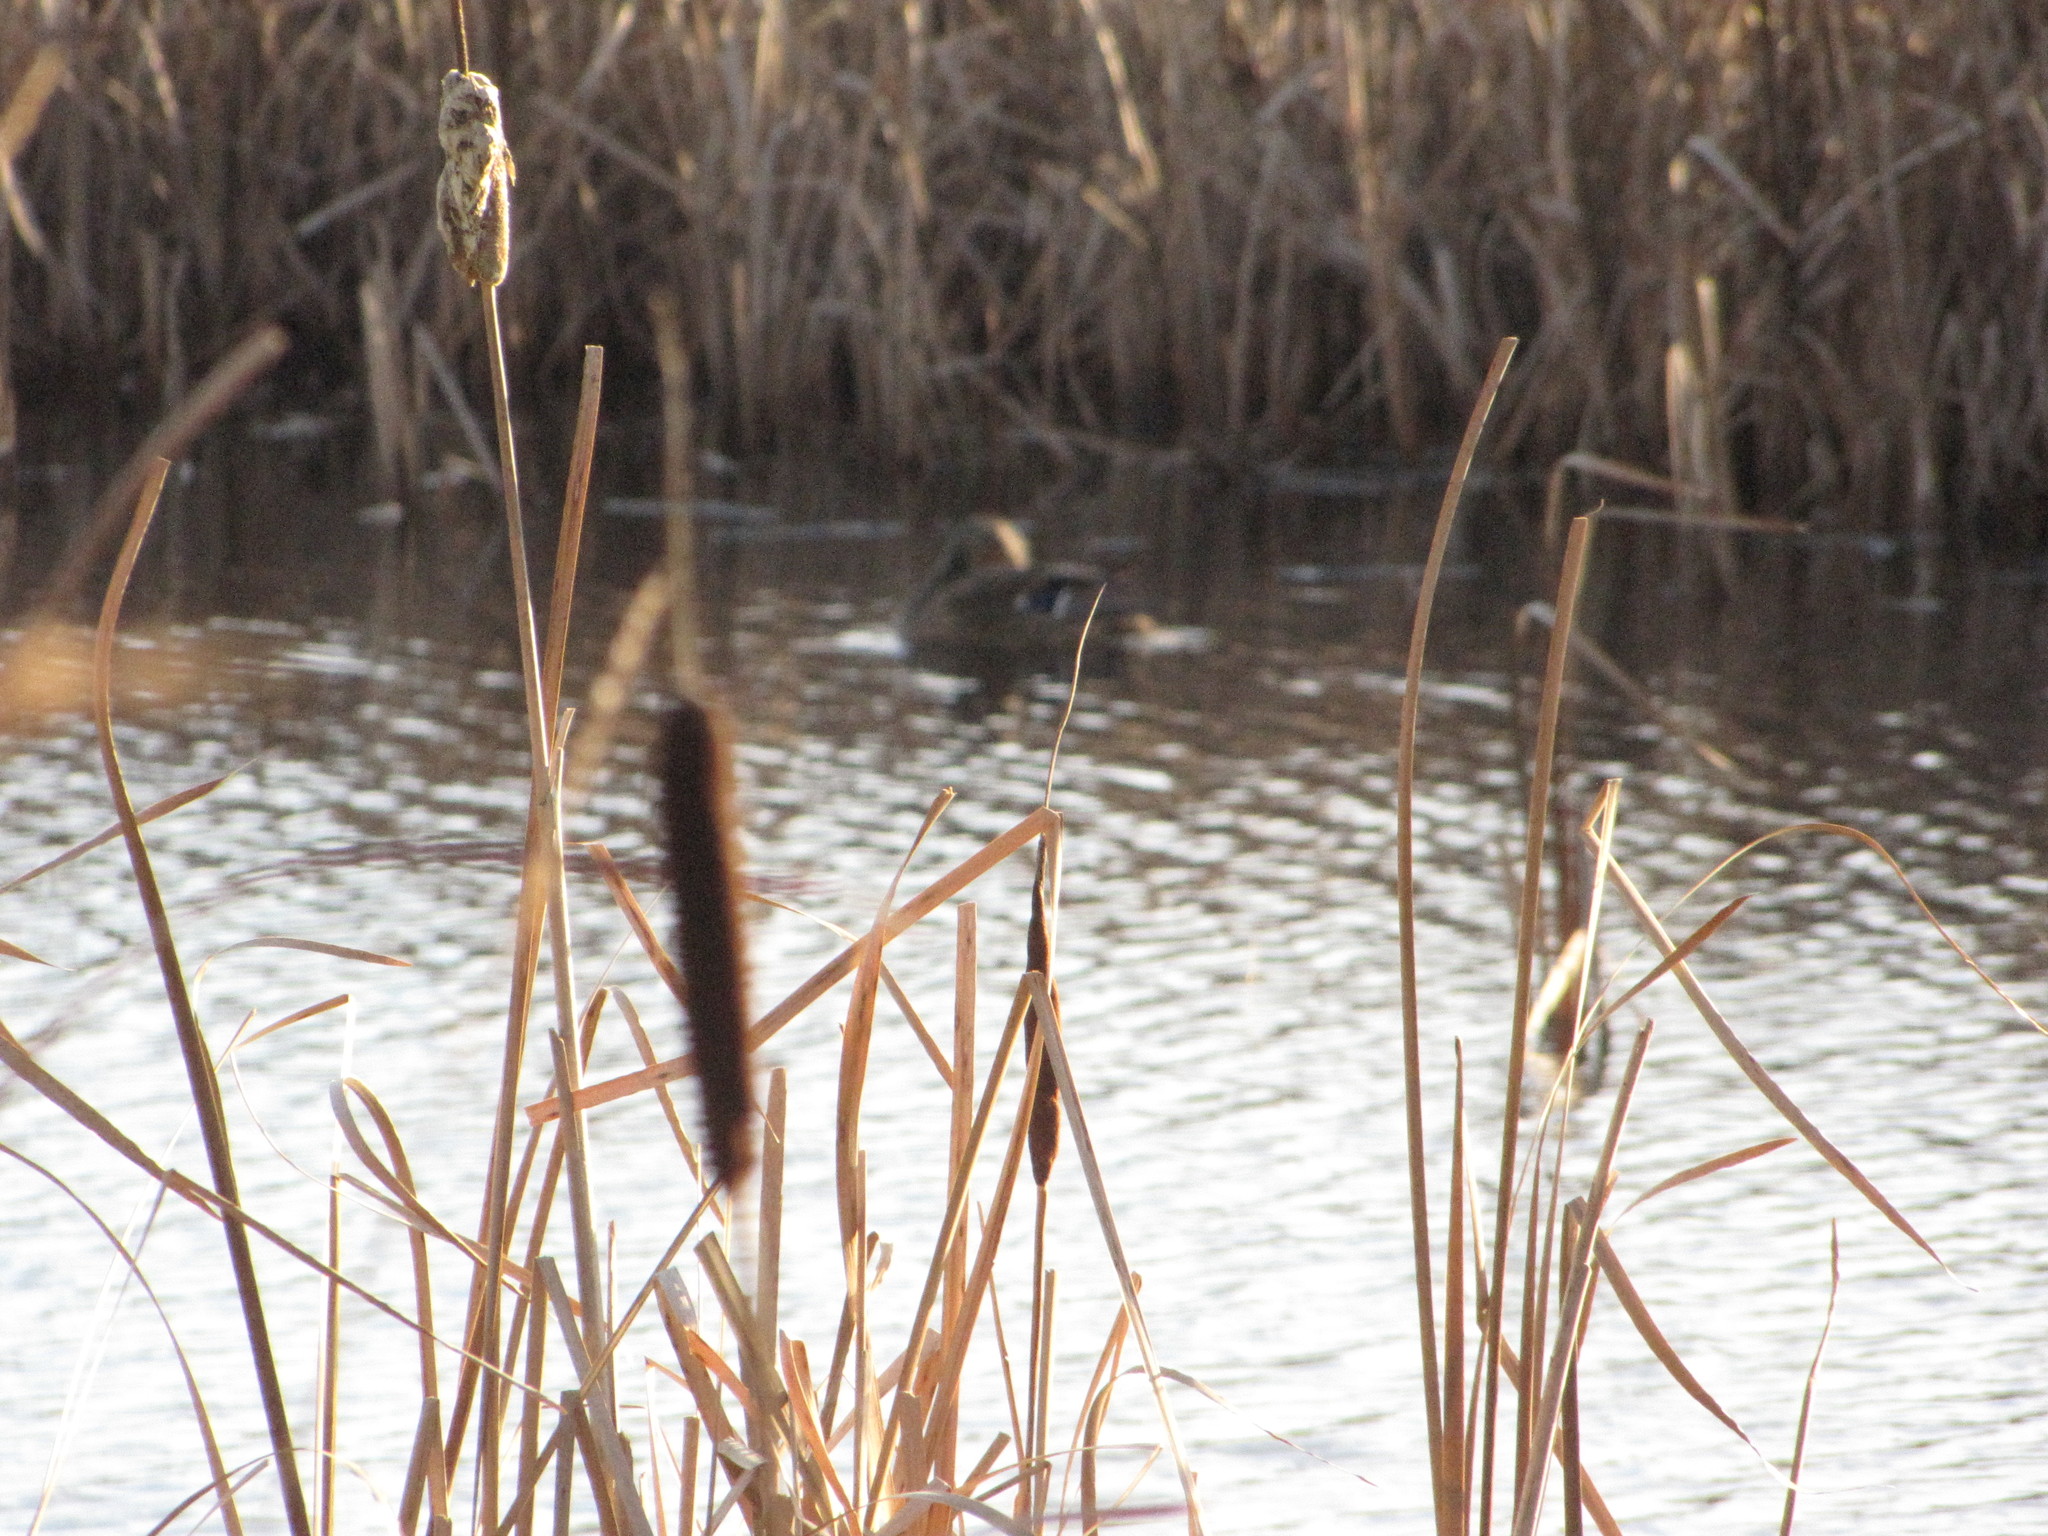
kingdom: Animalia
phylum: Chordata
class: Aves
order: Anseriformes
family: Anatidae
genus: Anas
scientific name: Anas platyrhynchos
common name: Mallard
